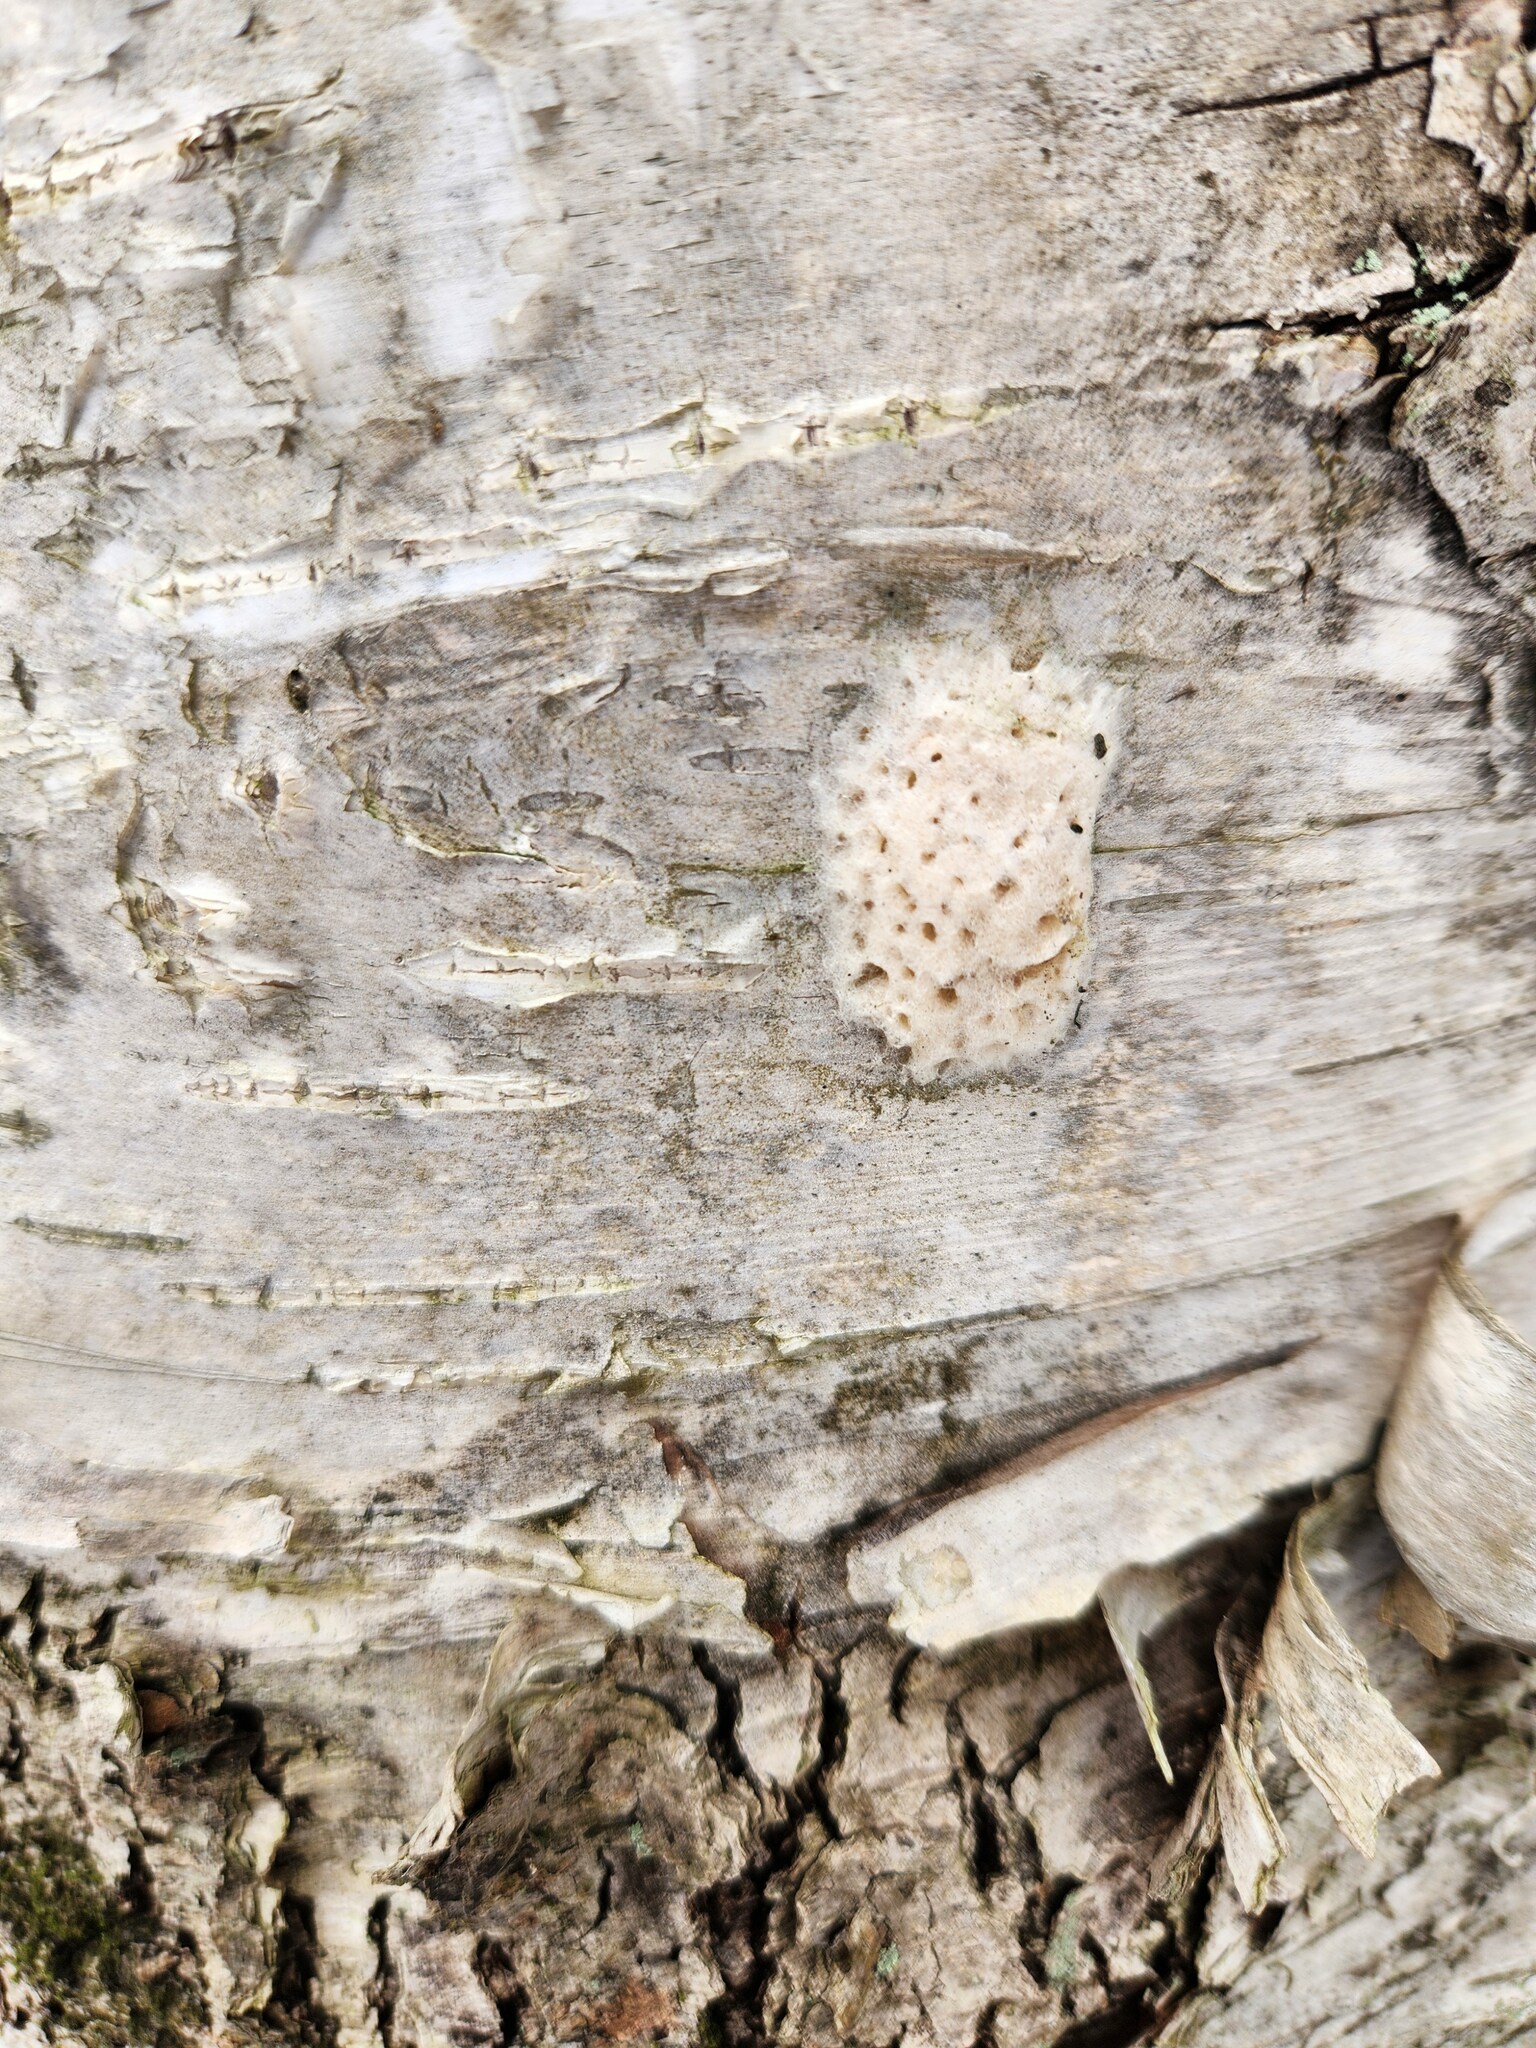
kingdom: Animalia
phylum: Arthropoda
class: Insecta
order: Lepidoptera
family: Erebidae
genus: Lymantria
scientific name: Lymantria dispar
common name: Gypsy moth
